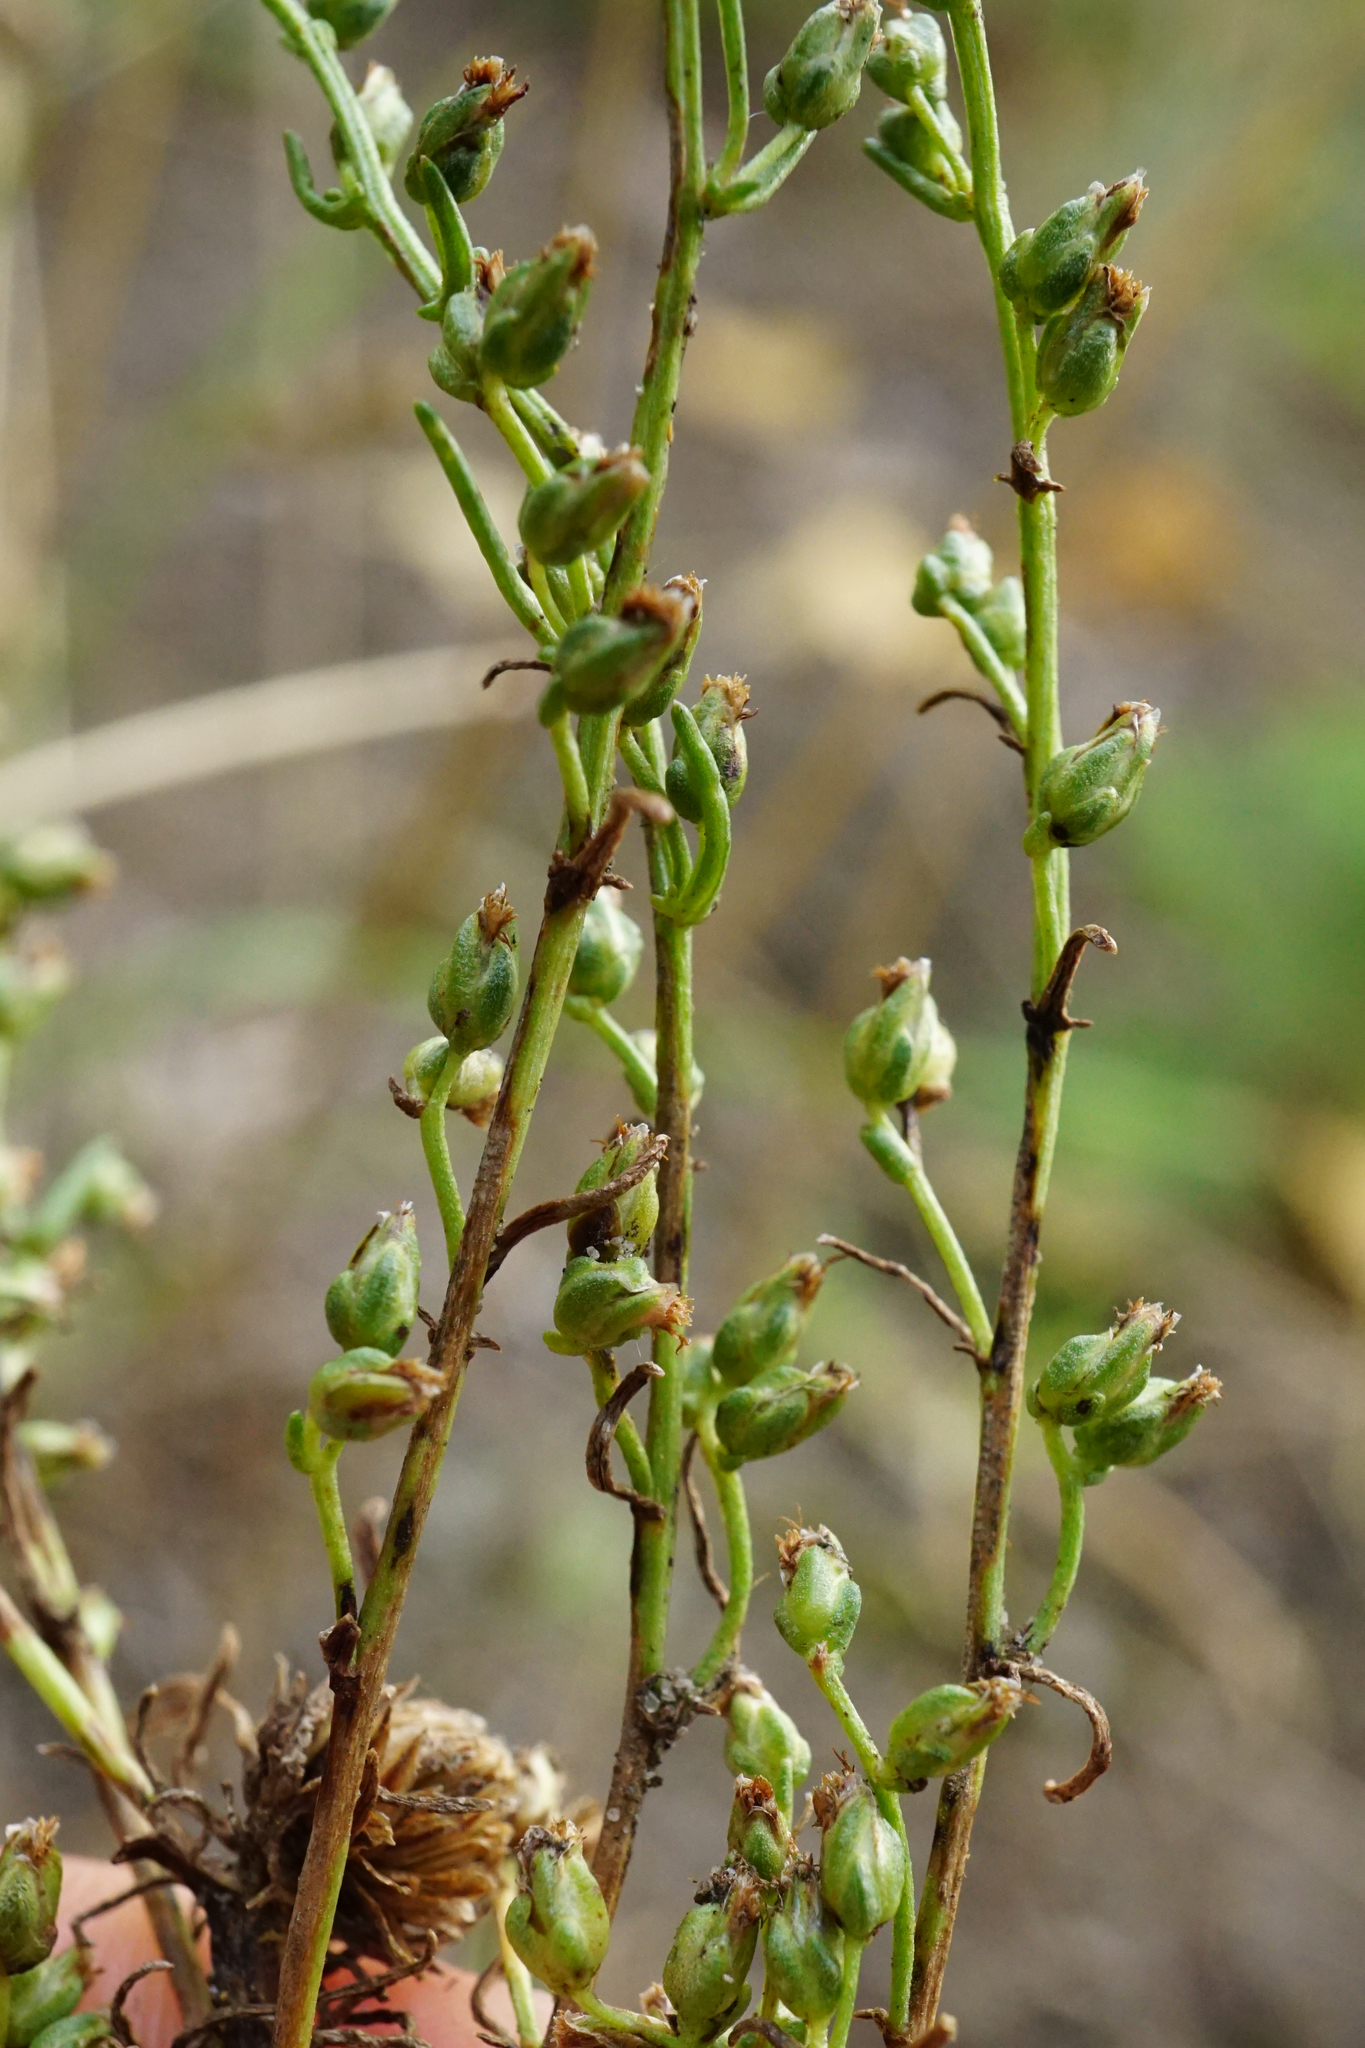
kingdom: Plantae
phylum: Tracheophyta
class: Magnoliopsida
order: Asterales
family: Asteraceae
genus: Artemisia
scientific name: Artemisia campestris
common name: Field wormwood
